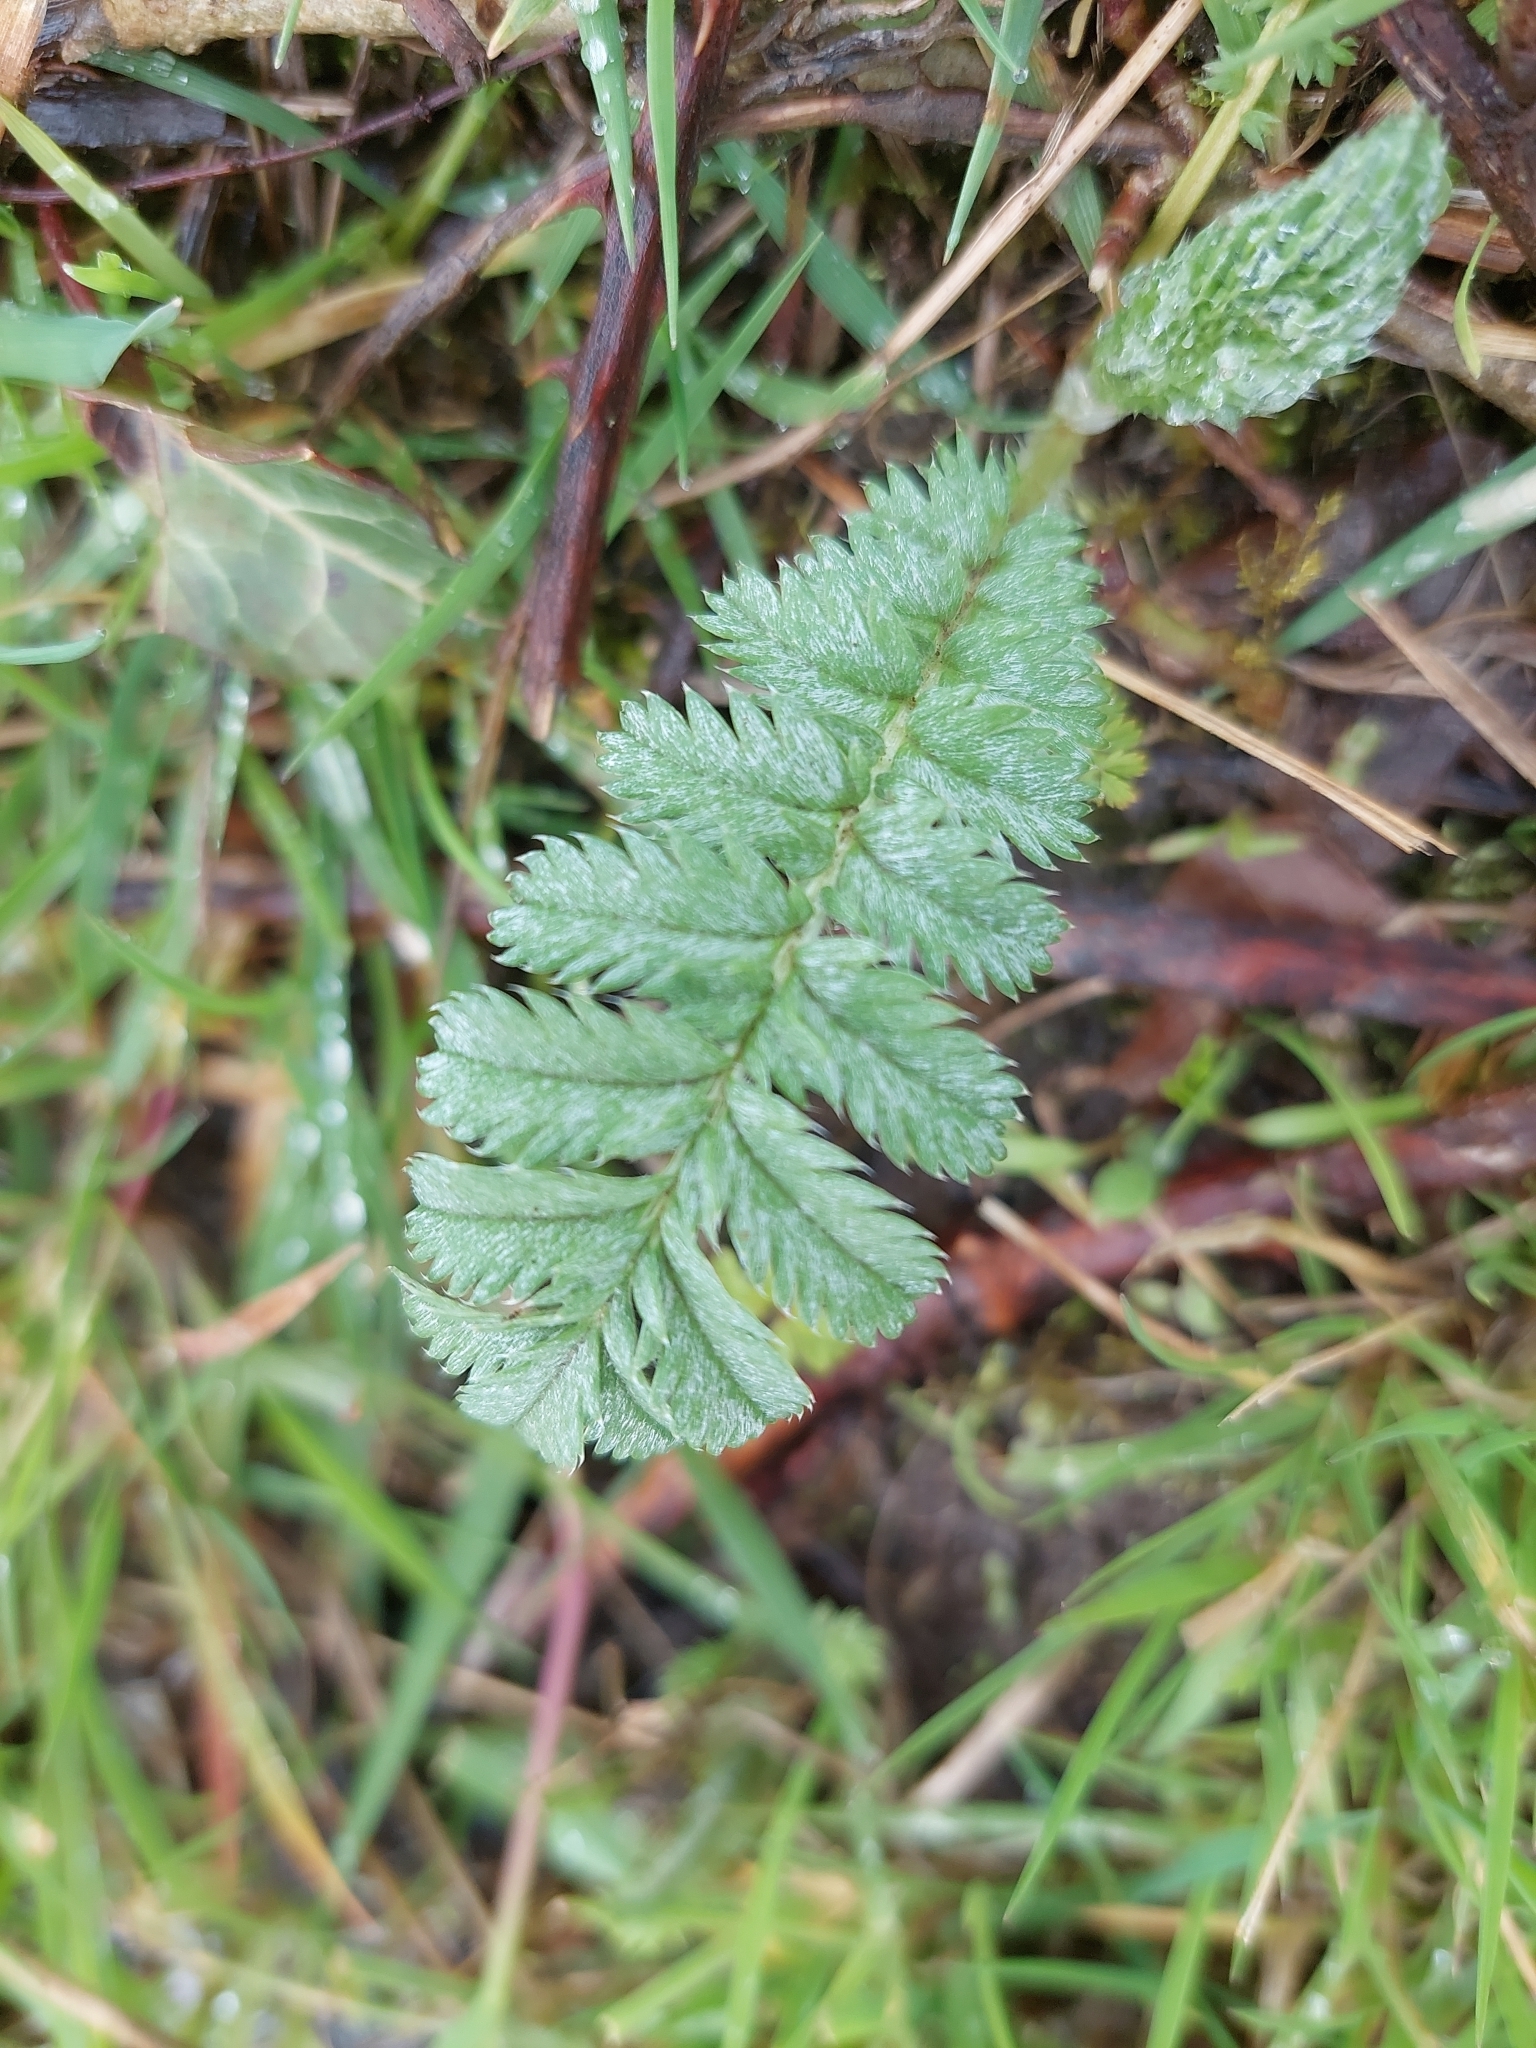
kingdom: Plantae
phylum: Tracheophyta
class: Magnoliopsida
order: Rosales
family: Rosaceae
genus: Argentina
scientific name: Argentina anserina
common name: Common silverweed
